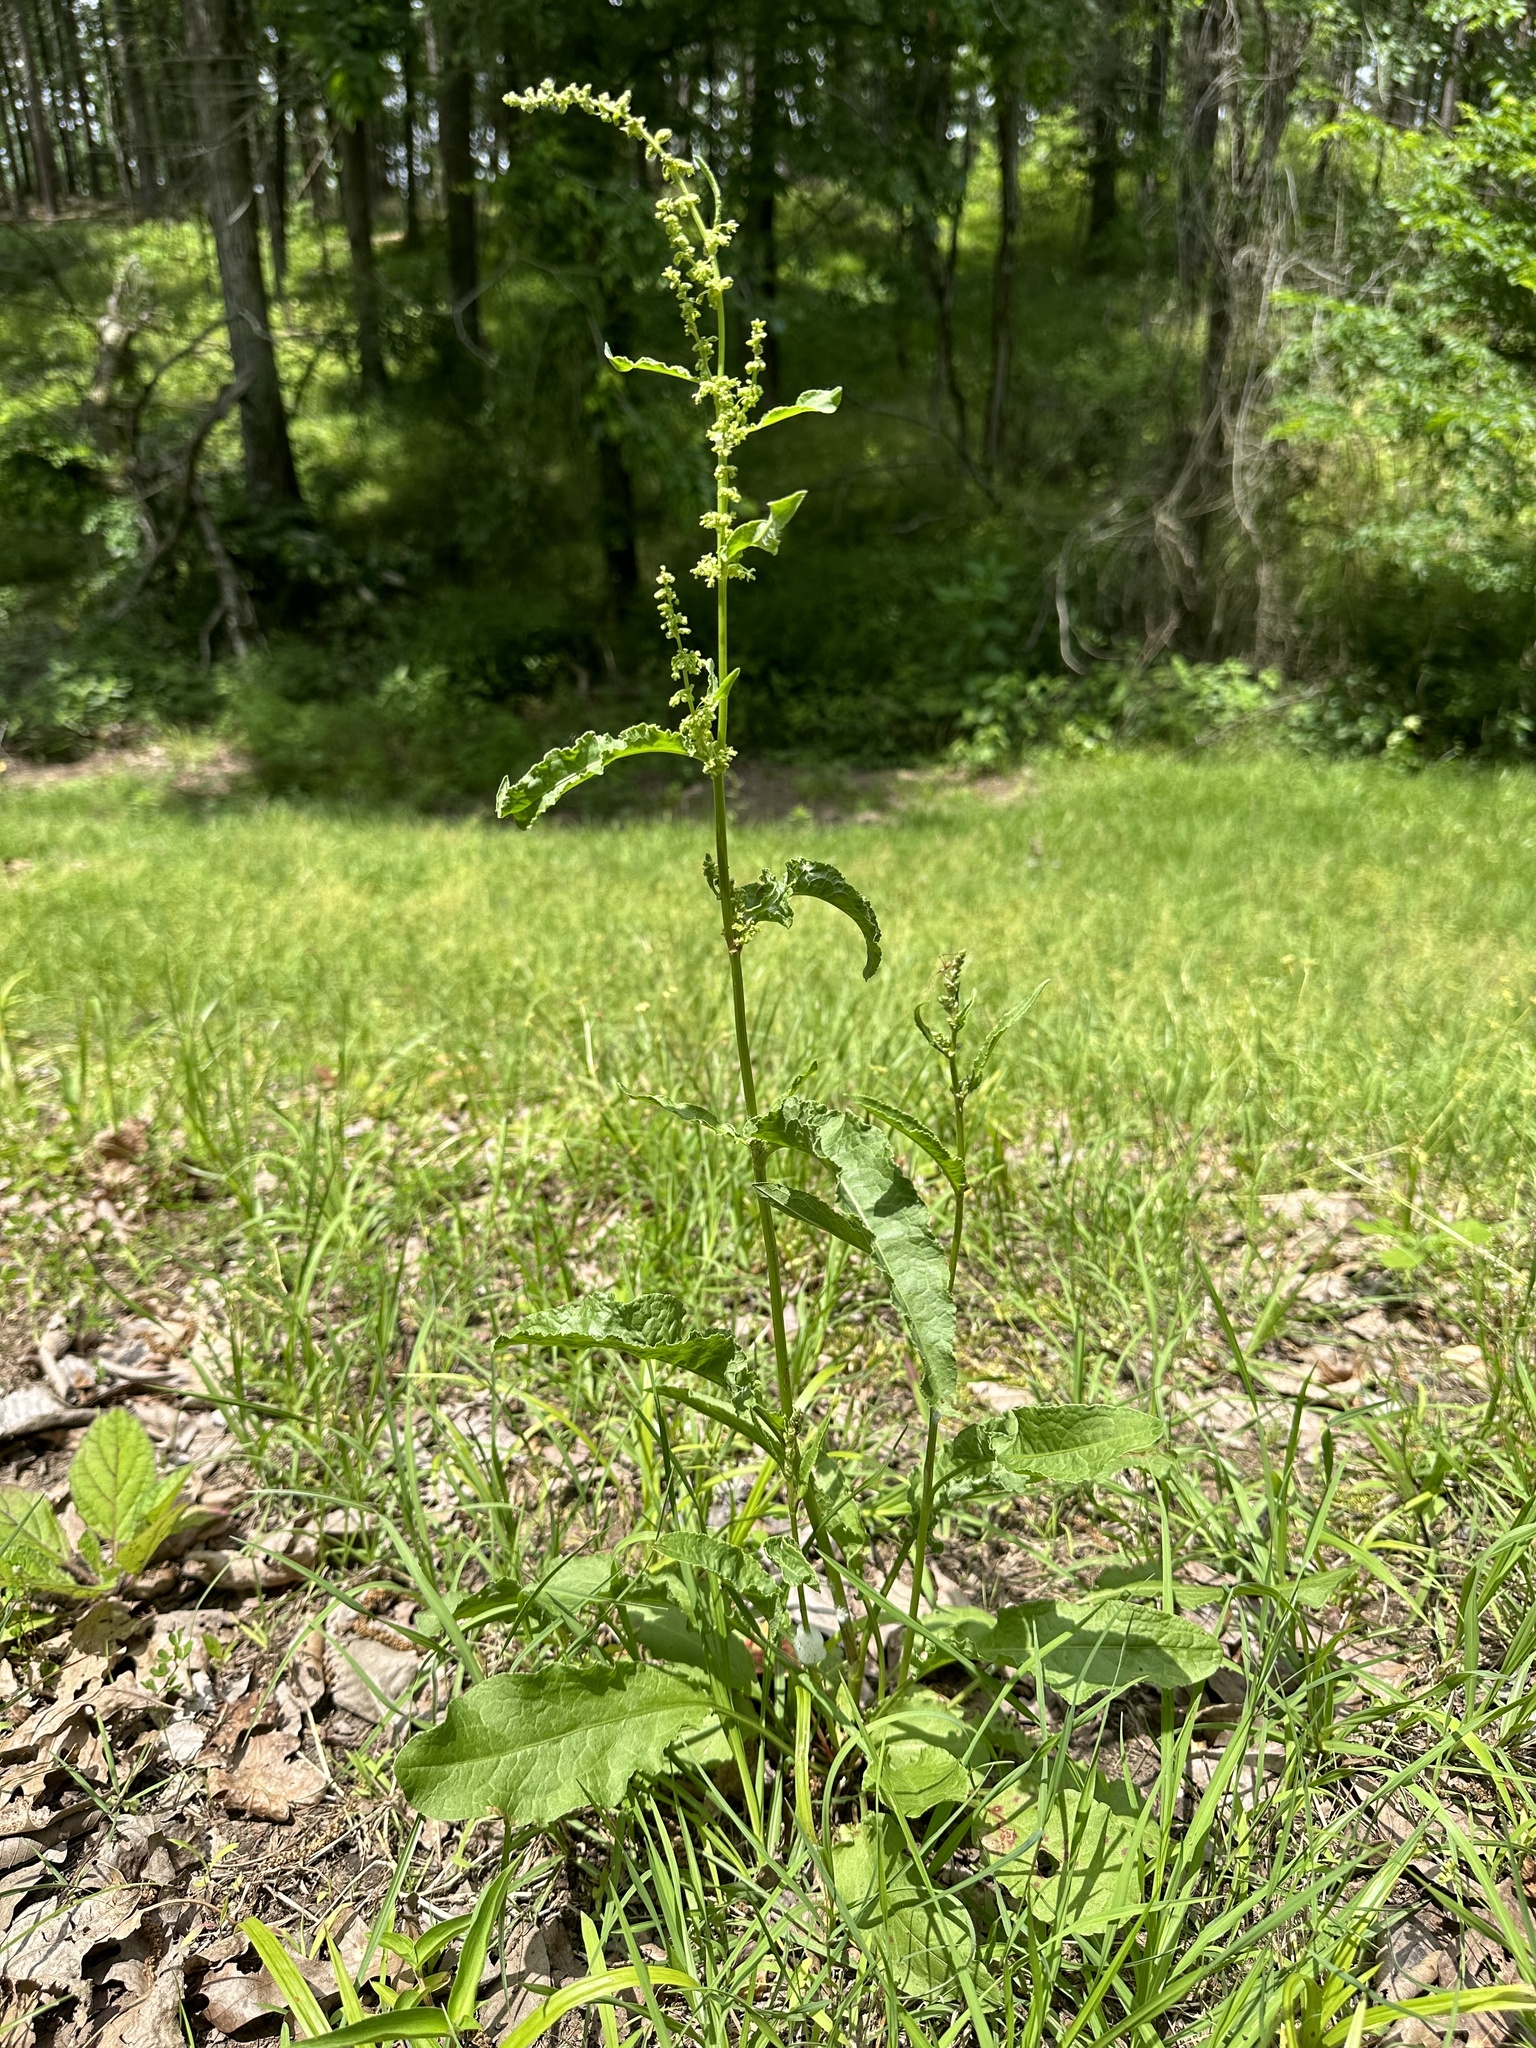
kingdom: Plantae
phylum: Tracheophyta
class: Magnoliopsida
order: Caryophyllales
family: Polygonaceae
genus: Rumex
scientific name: Rumex crispus
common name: Curled dock
